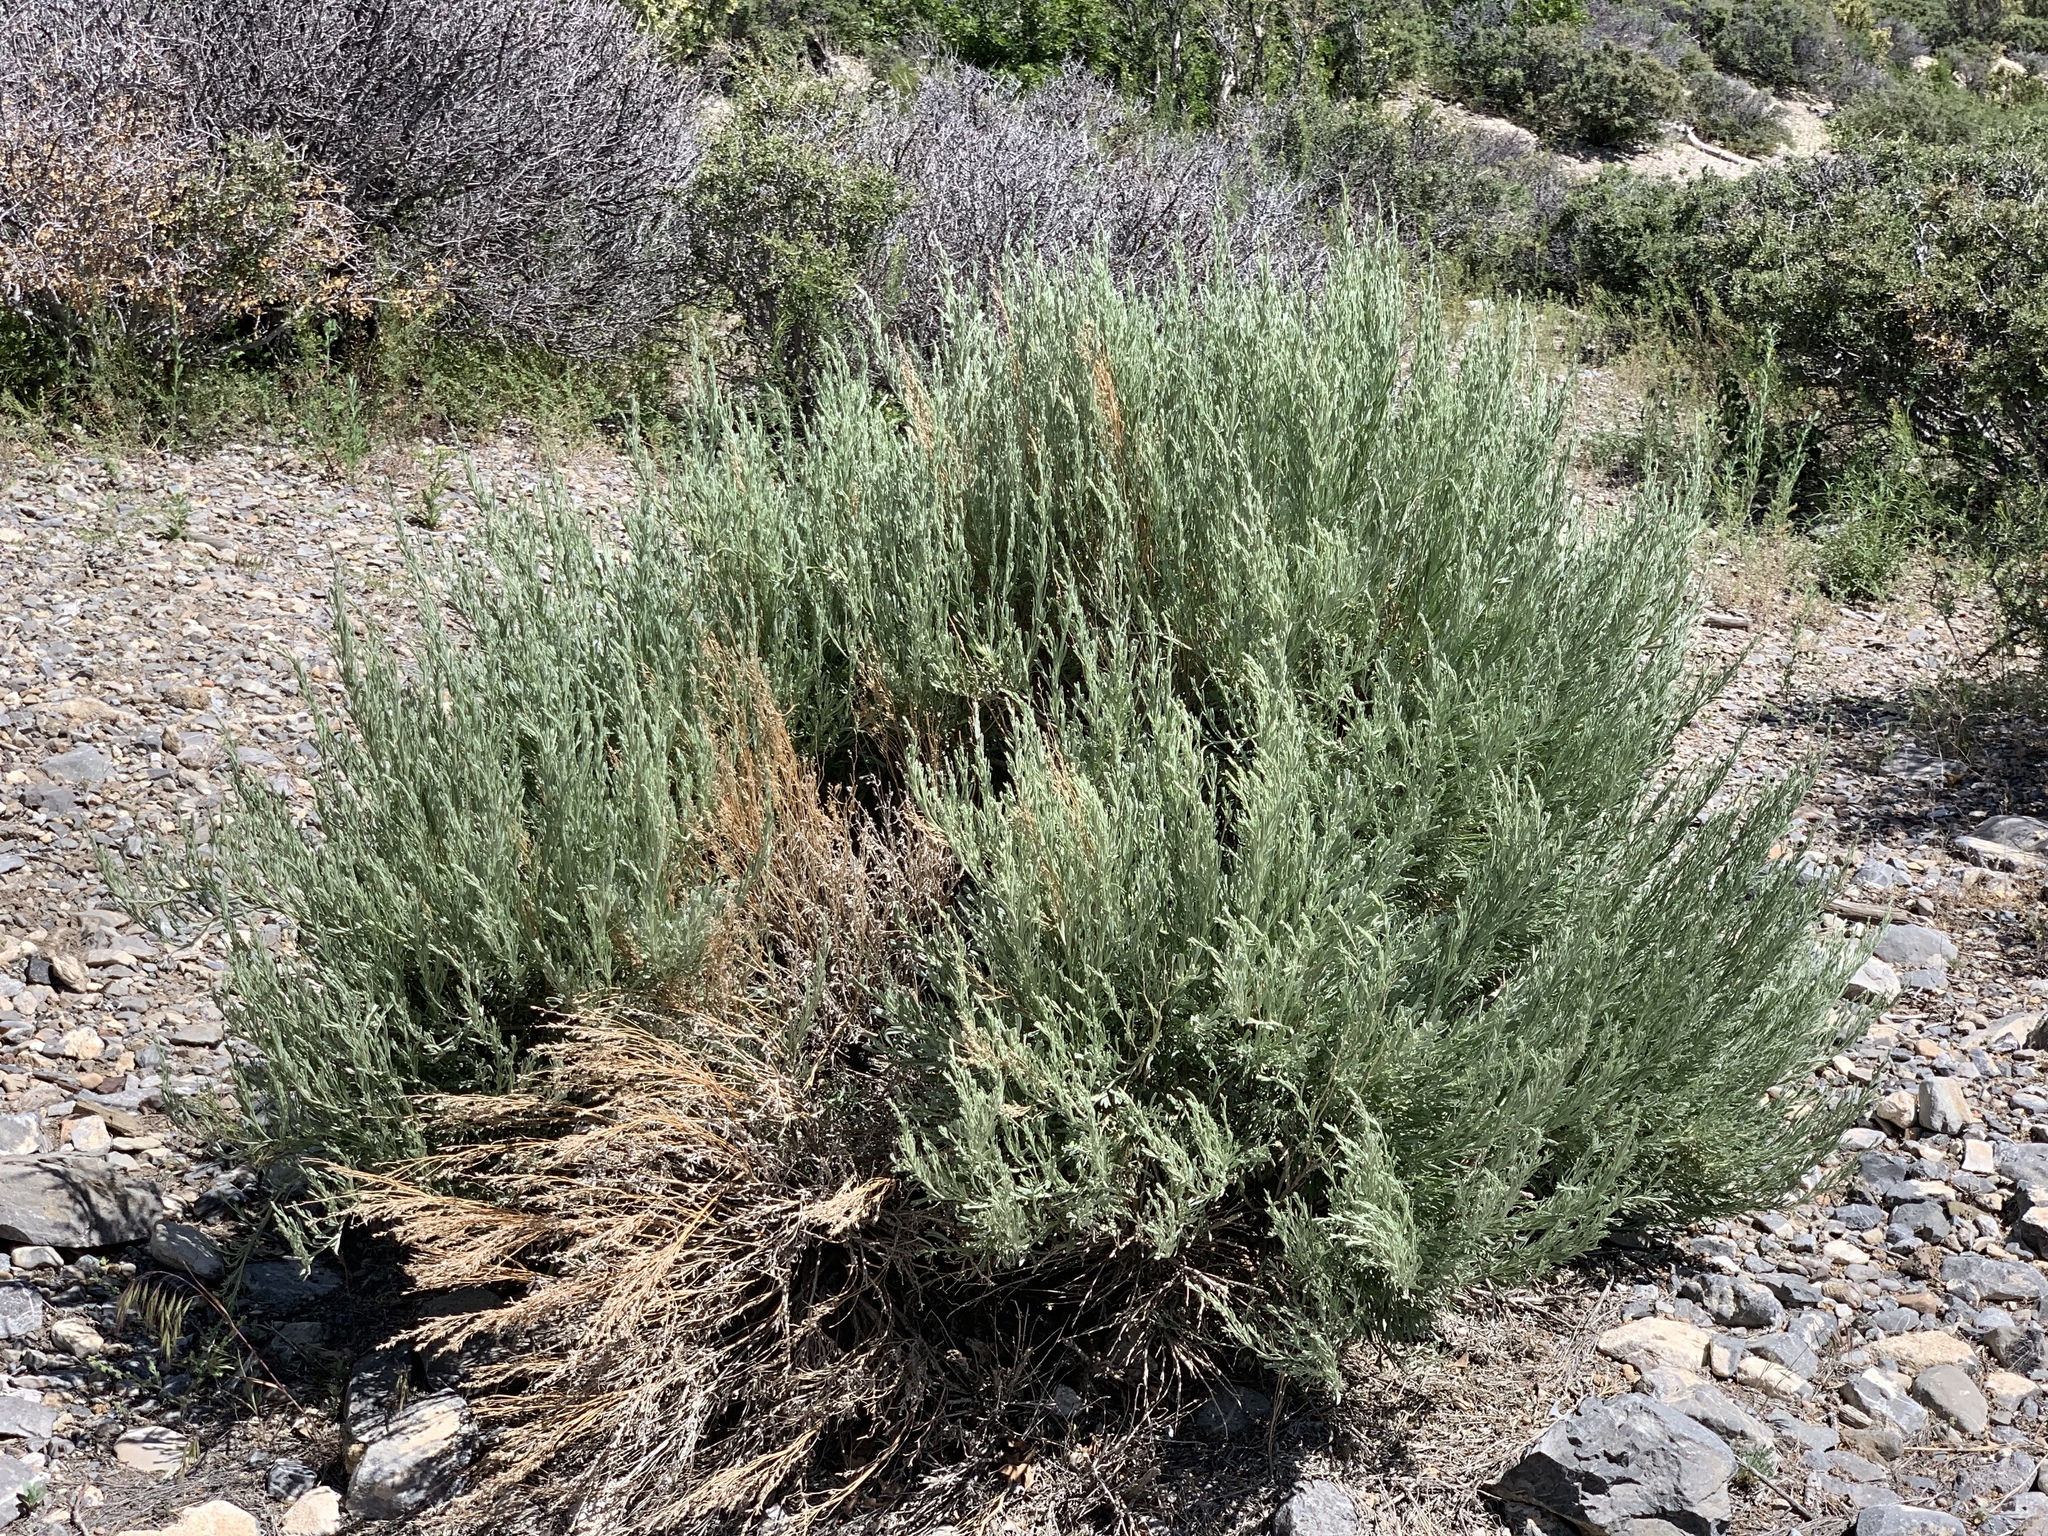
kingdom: Plantae
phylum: Tracheophyta
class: Magnoliopsida
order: Asterales
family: Asteraceae
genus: Artemisia
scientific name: Artemisia tridentata
